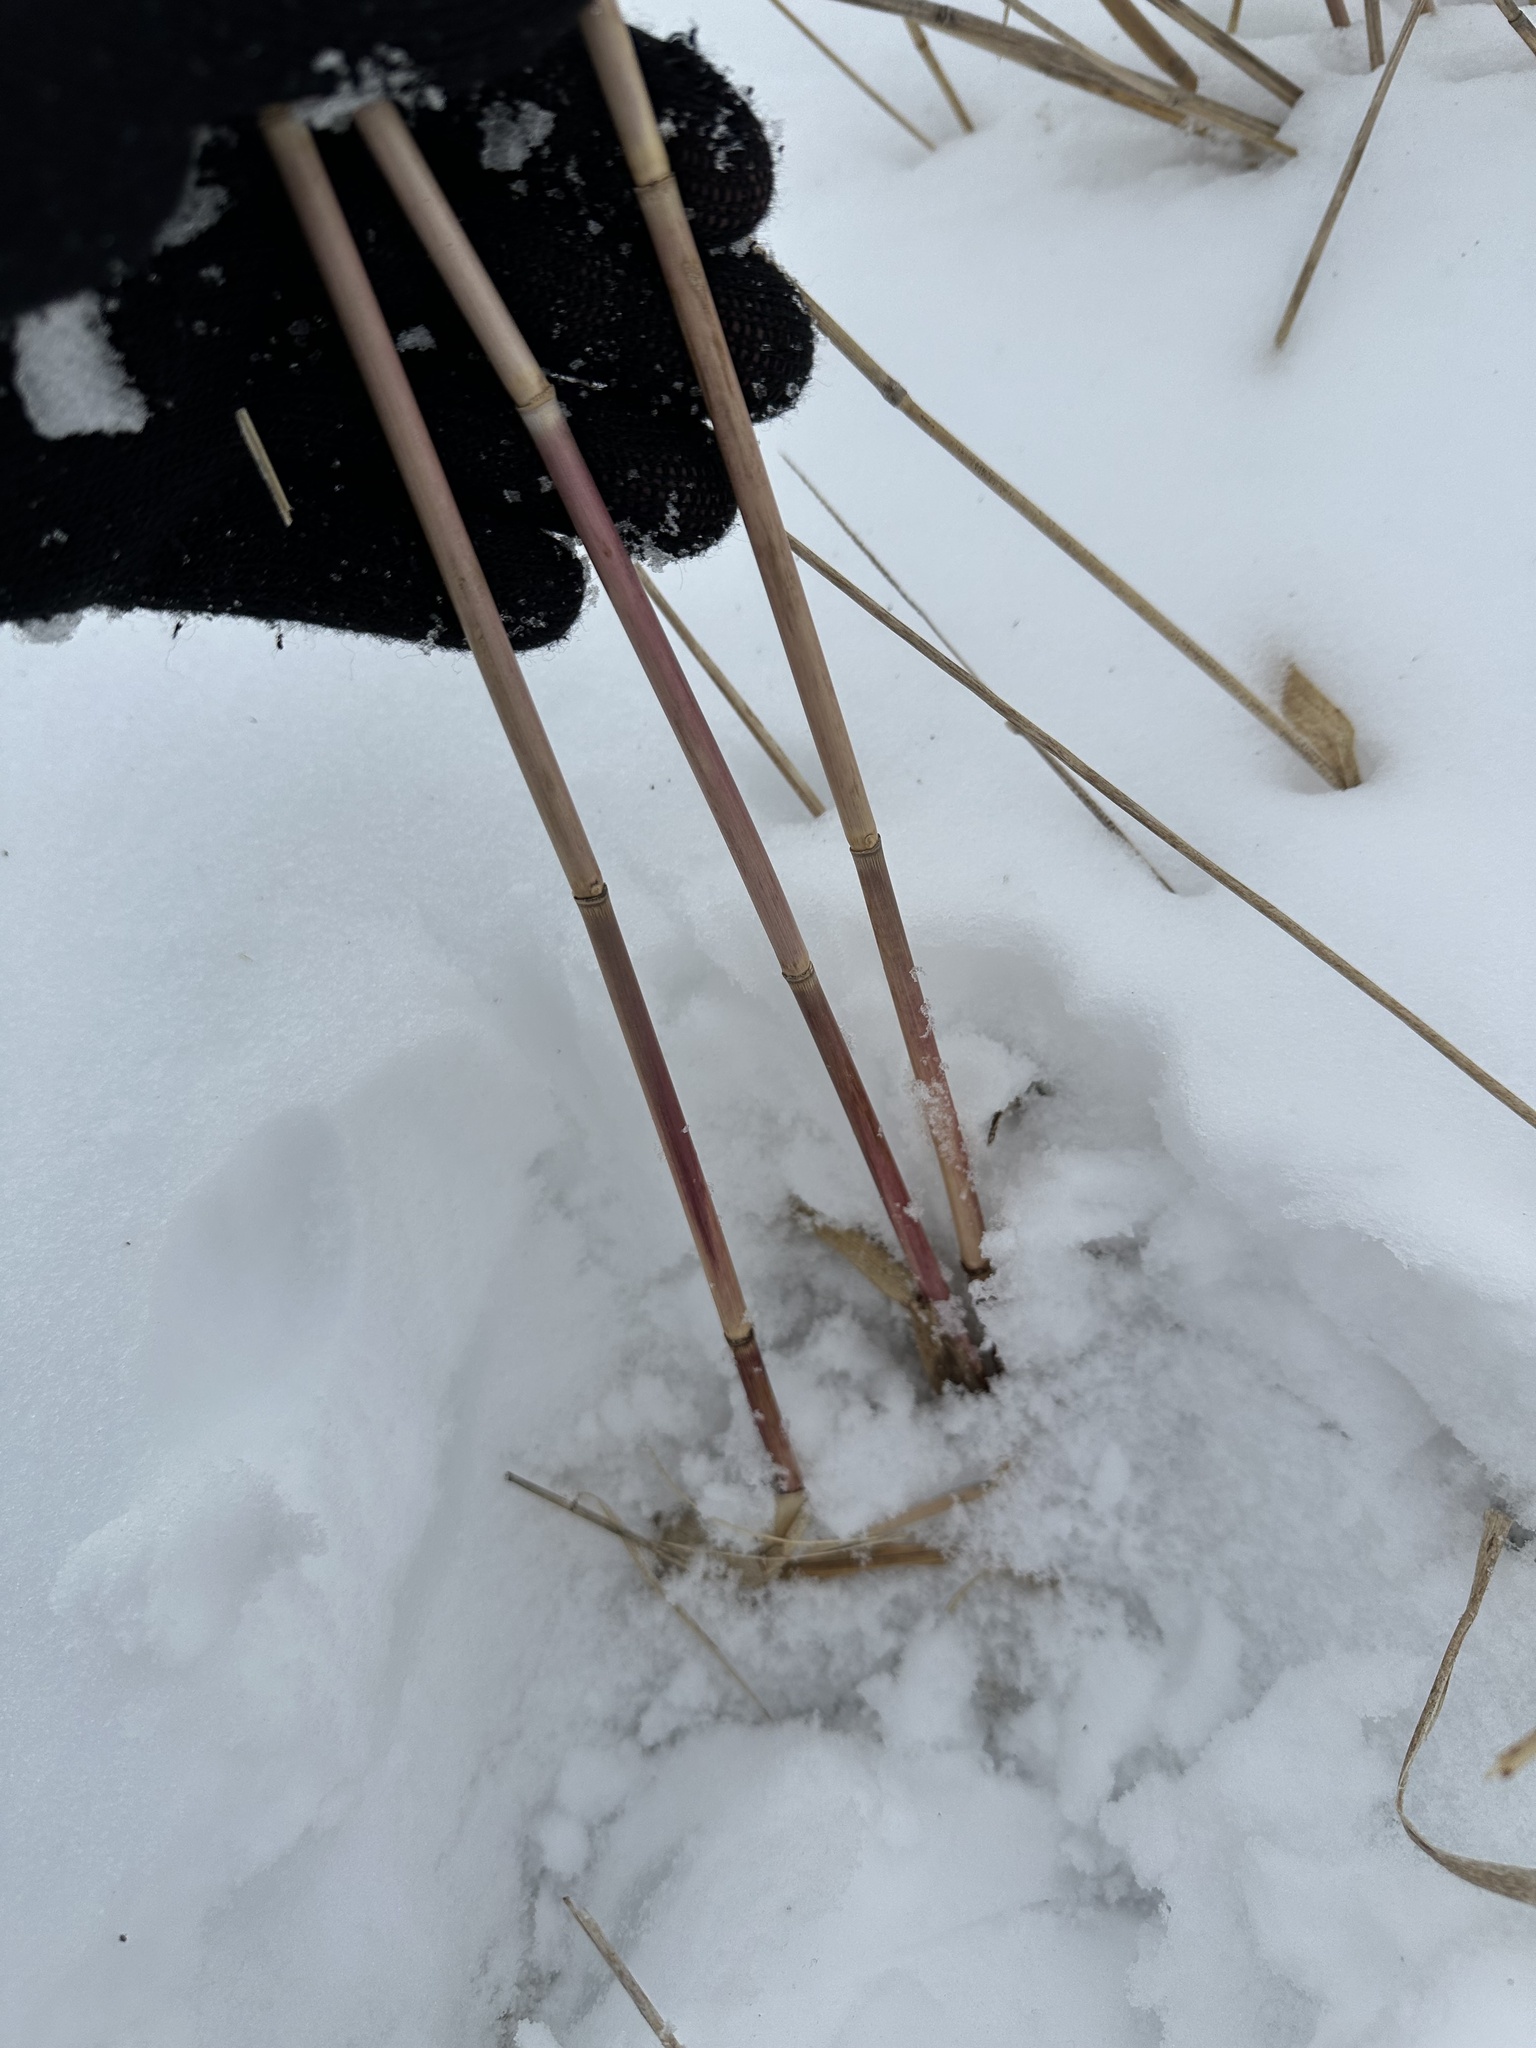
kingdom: Plantae
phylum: Tracheophyta
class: Liliopsida
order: Poales
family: Poaceae
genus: Phragmites
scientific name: Phragmites australis
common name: Common reed
